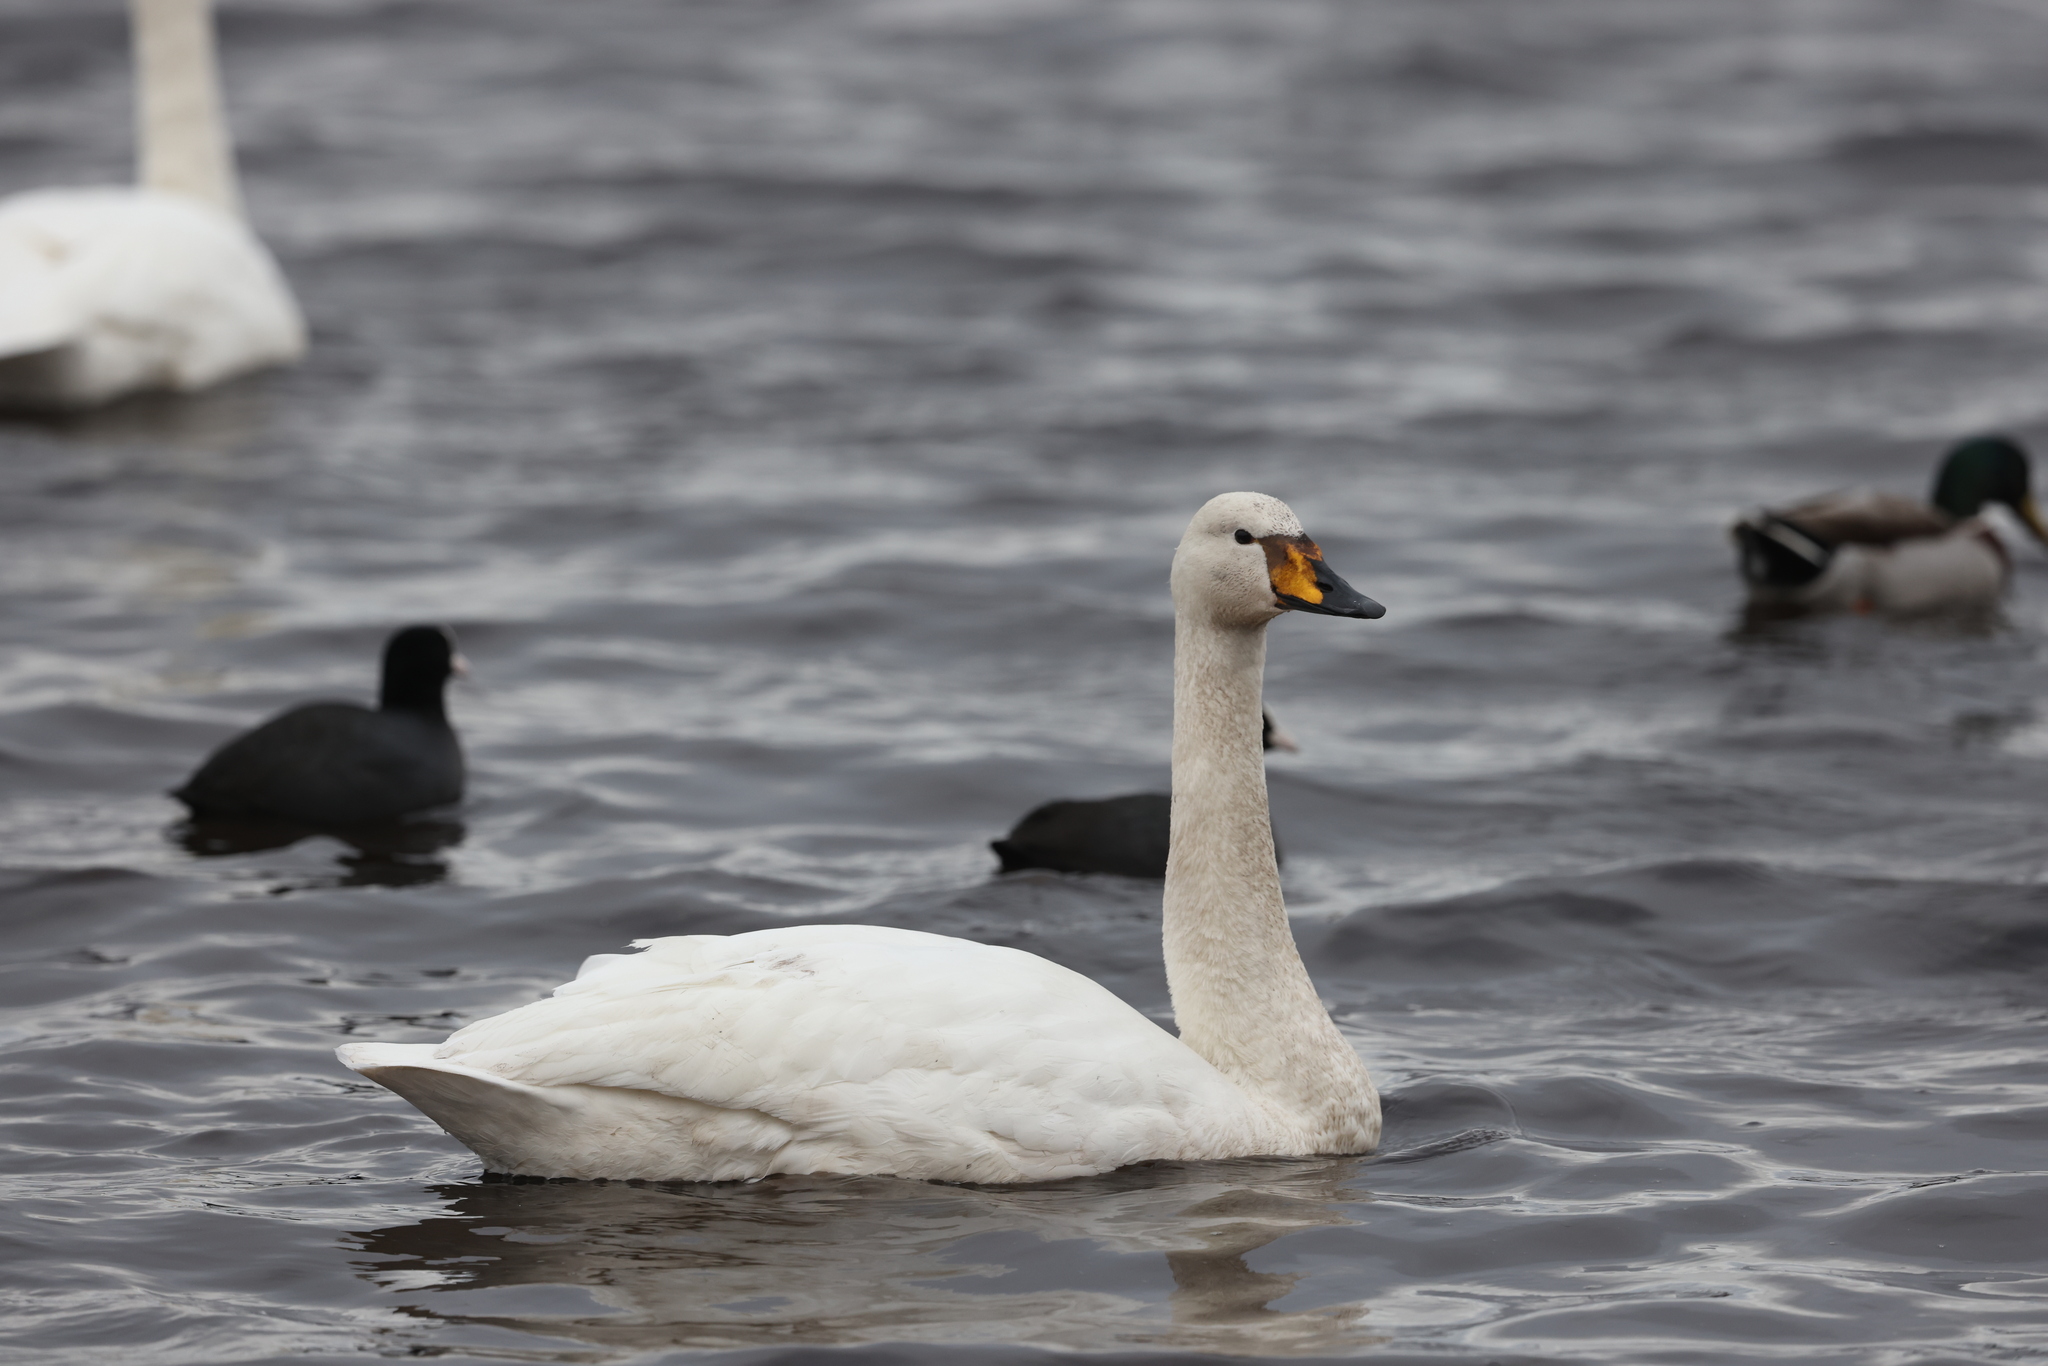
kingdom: Animalia
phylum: Chordata
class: Aves
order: Anseriformes
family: Anatidae
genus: Cygnus
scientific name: Cygnus cygnus
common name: Whooper swan
